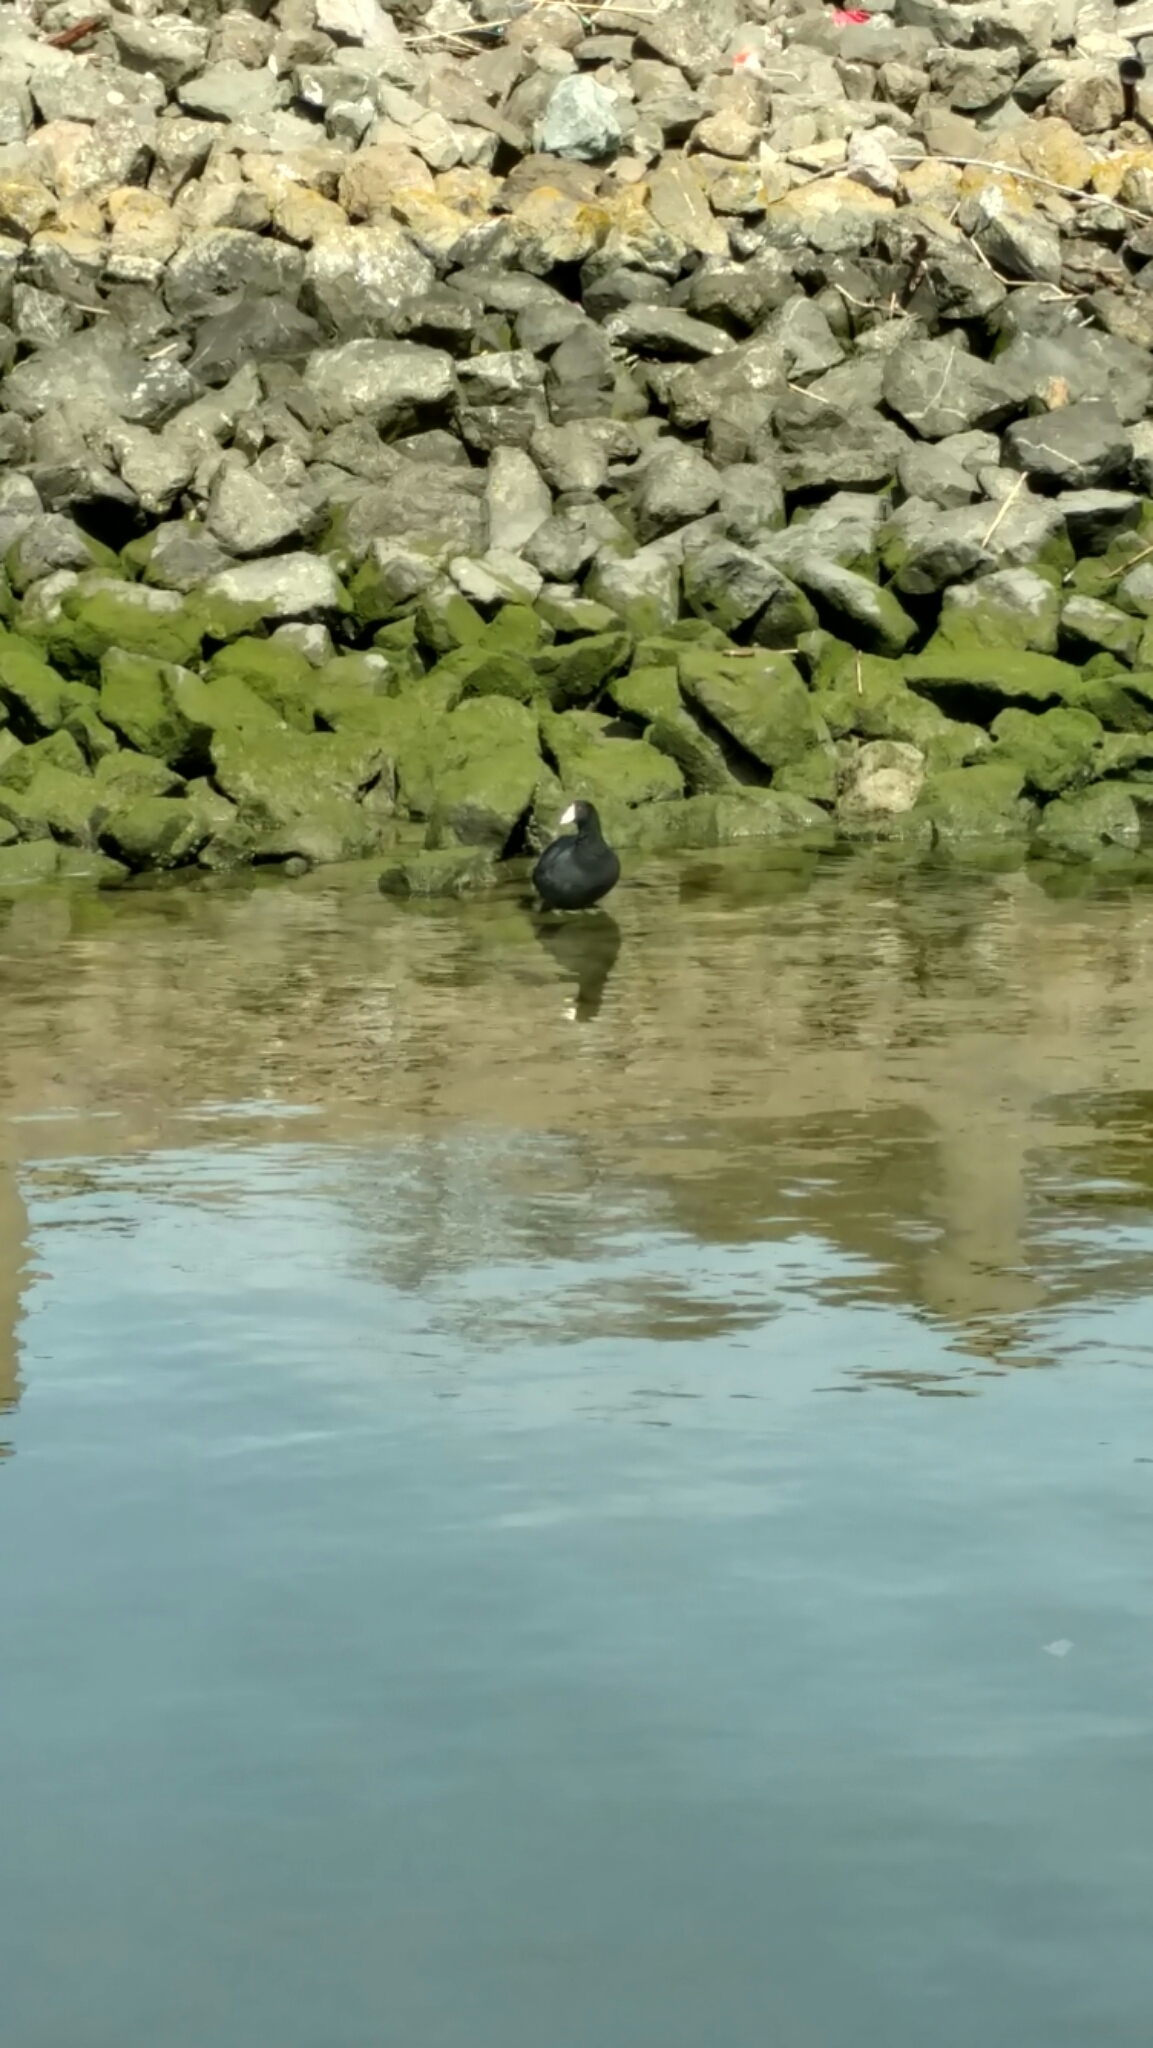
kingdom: Animalia
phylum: Chordata
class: Aves
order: Gruiformes
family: Rallidae
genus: Fulica
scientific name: Fulica americana
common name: American coot
